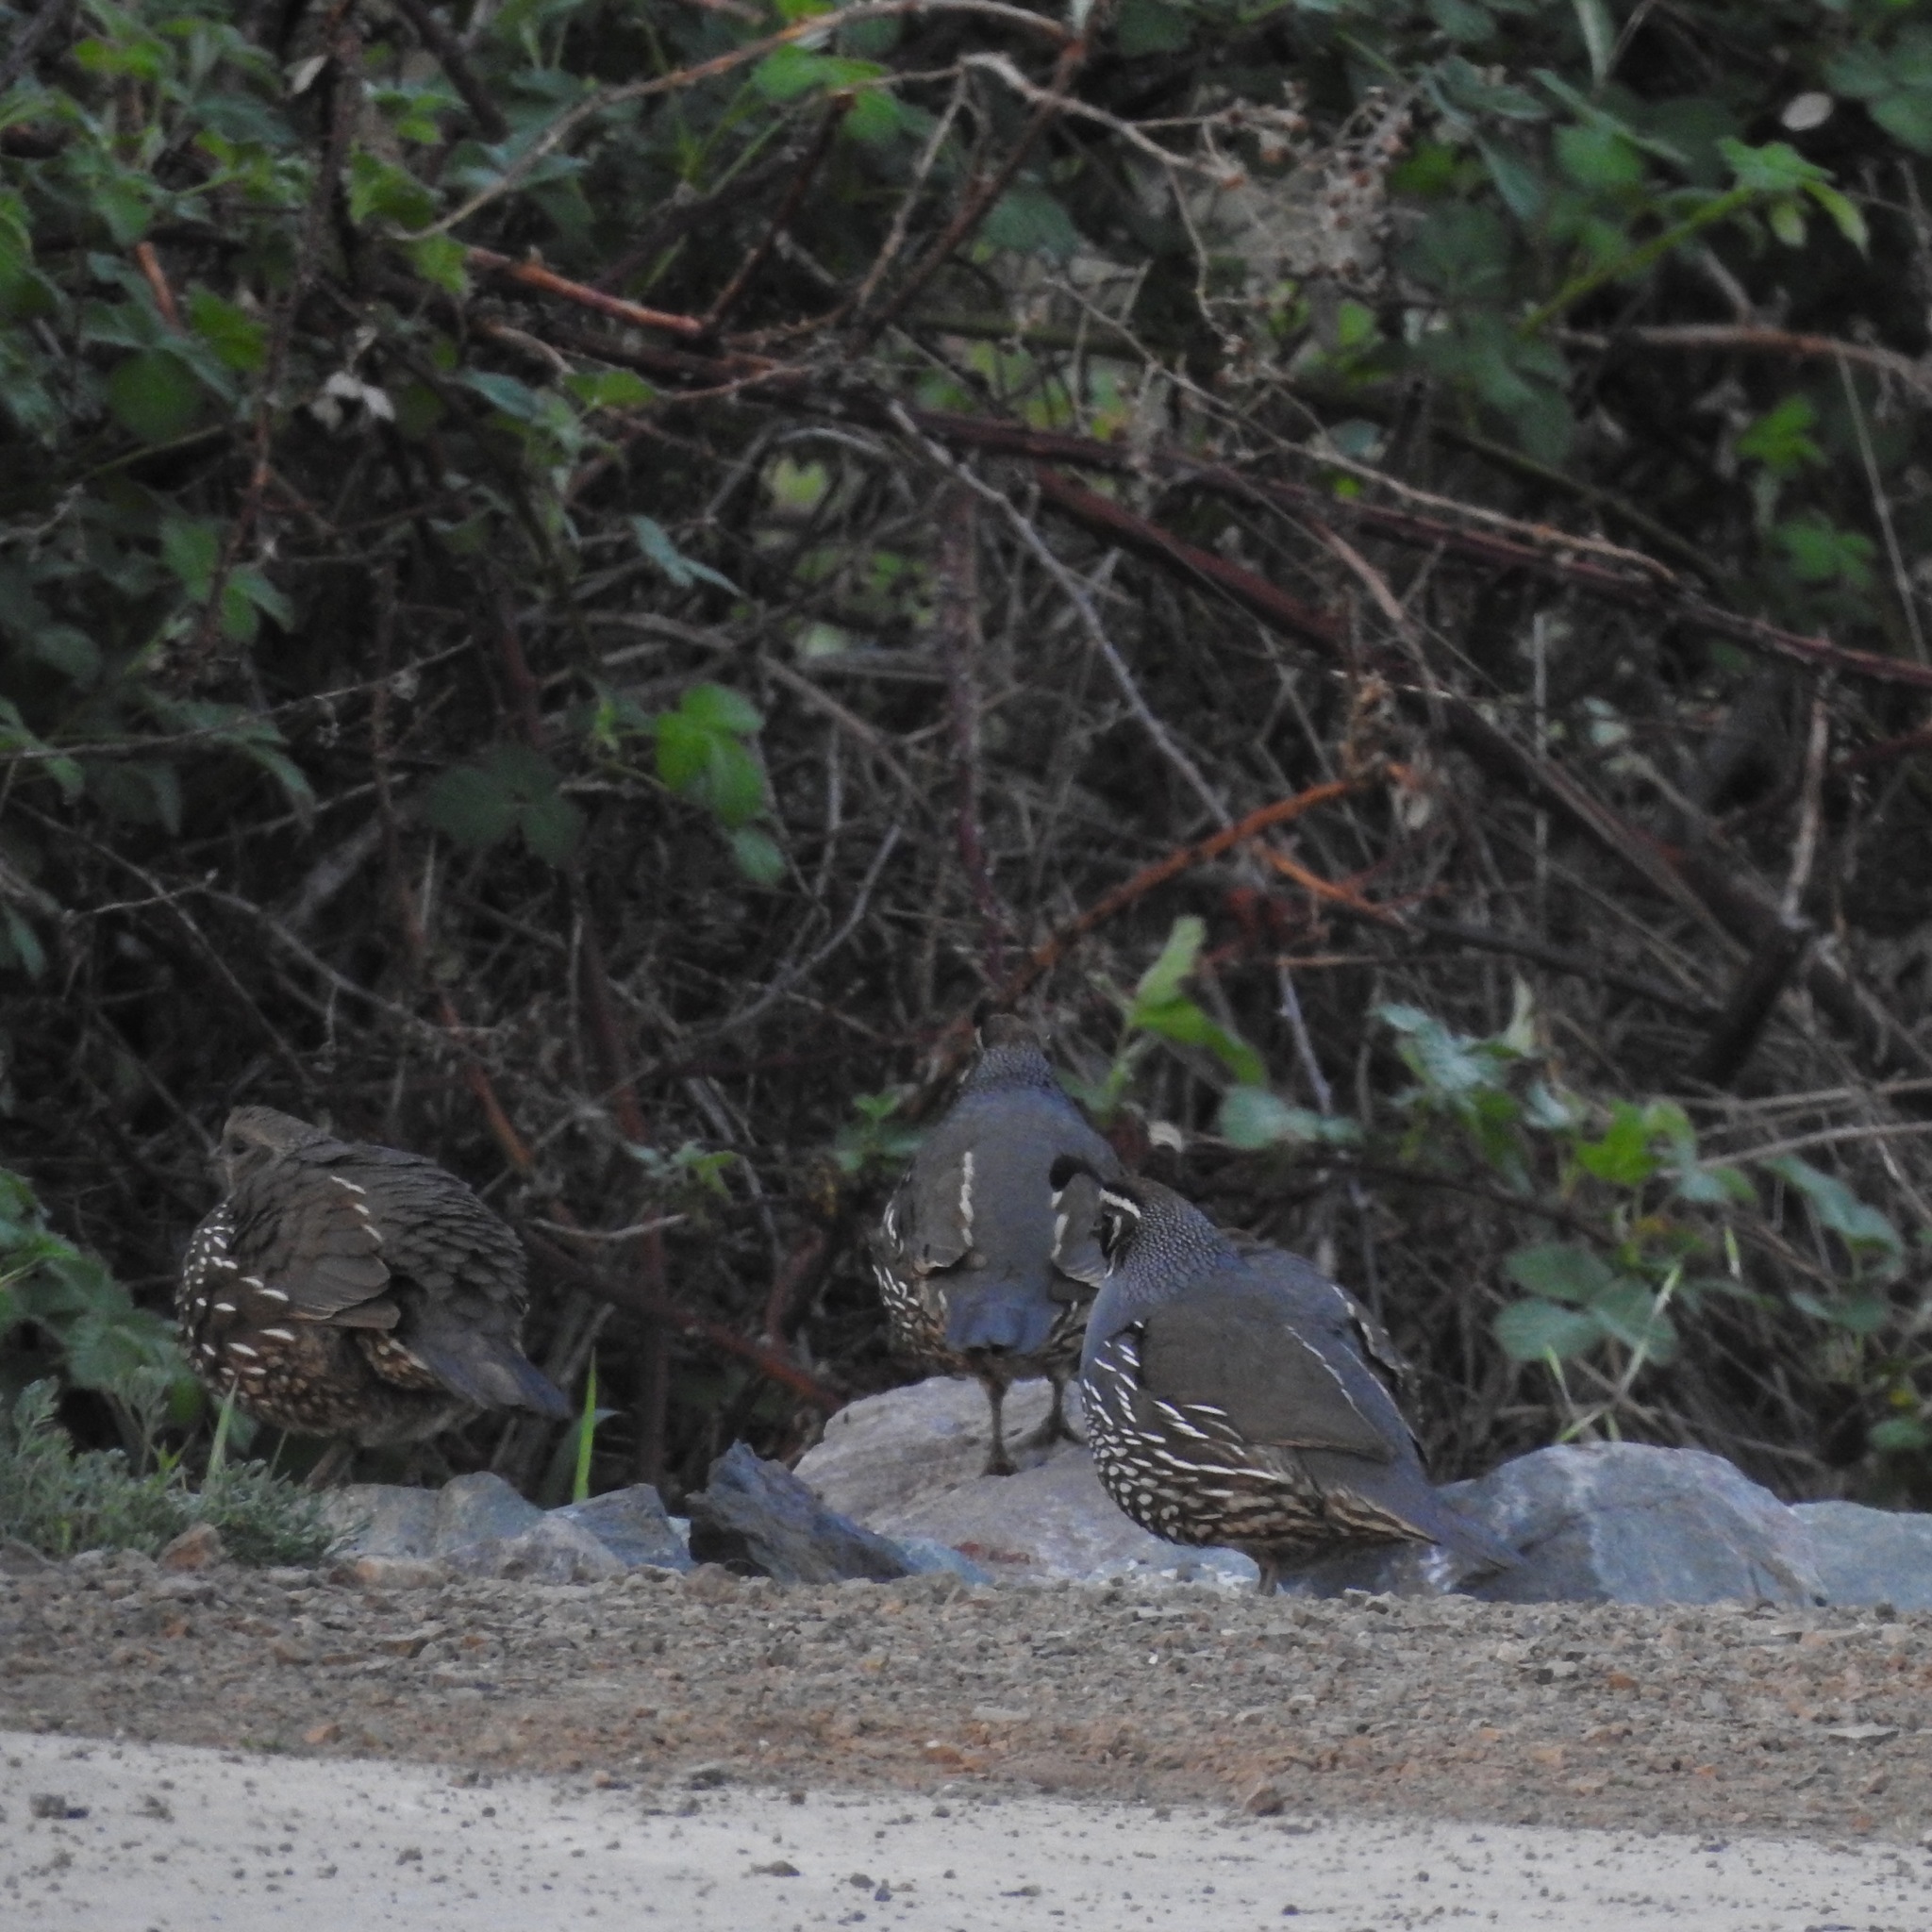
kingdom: Animalia
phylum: Chordata
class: Aves
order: Galliformes
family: Odontophoridae
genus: Callipepla
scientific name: Callipepla californica
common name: California quail
